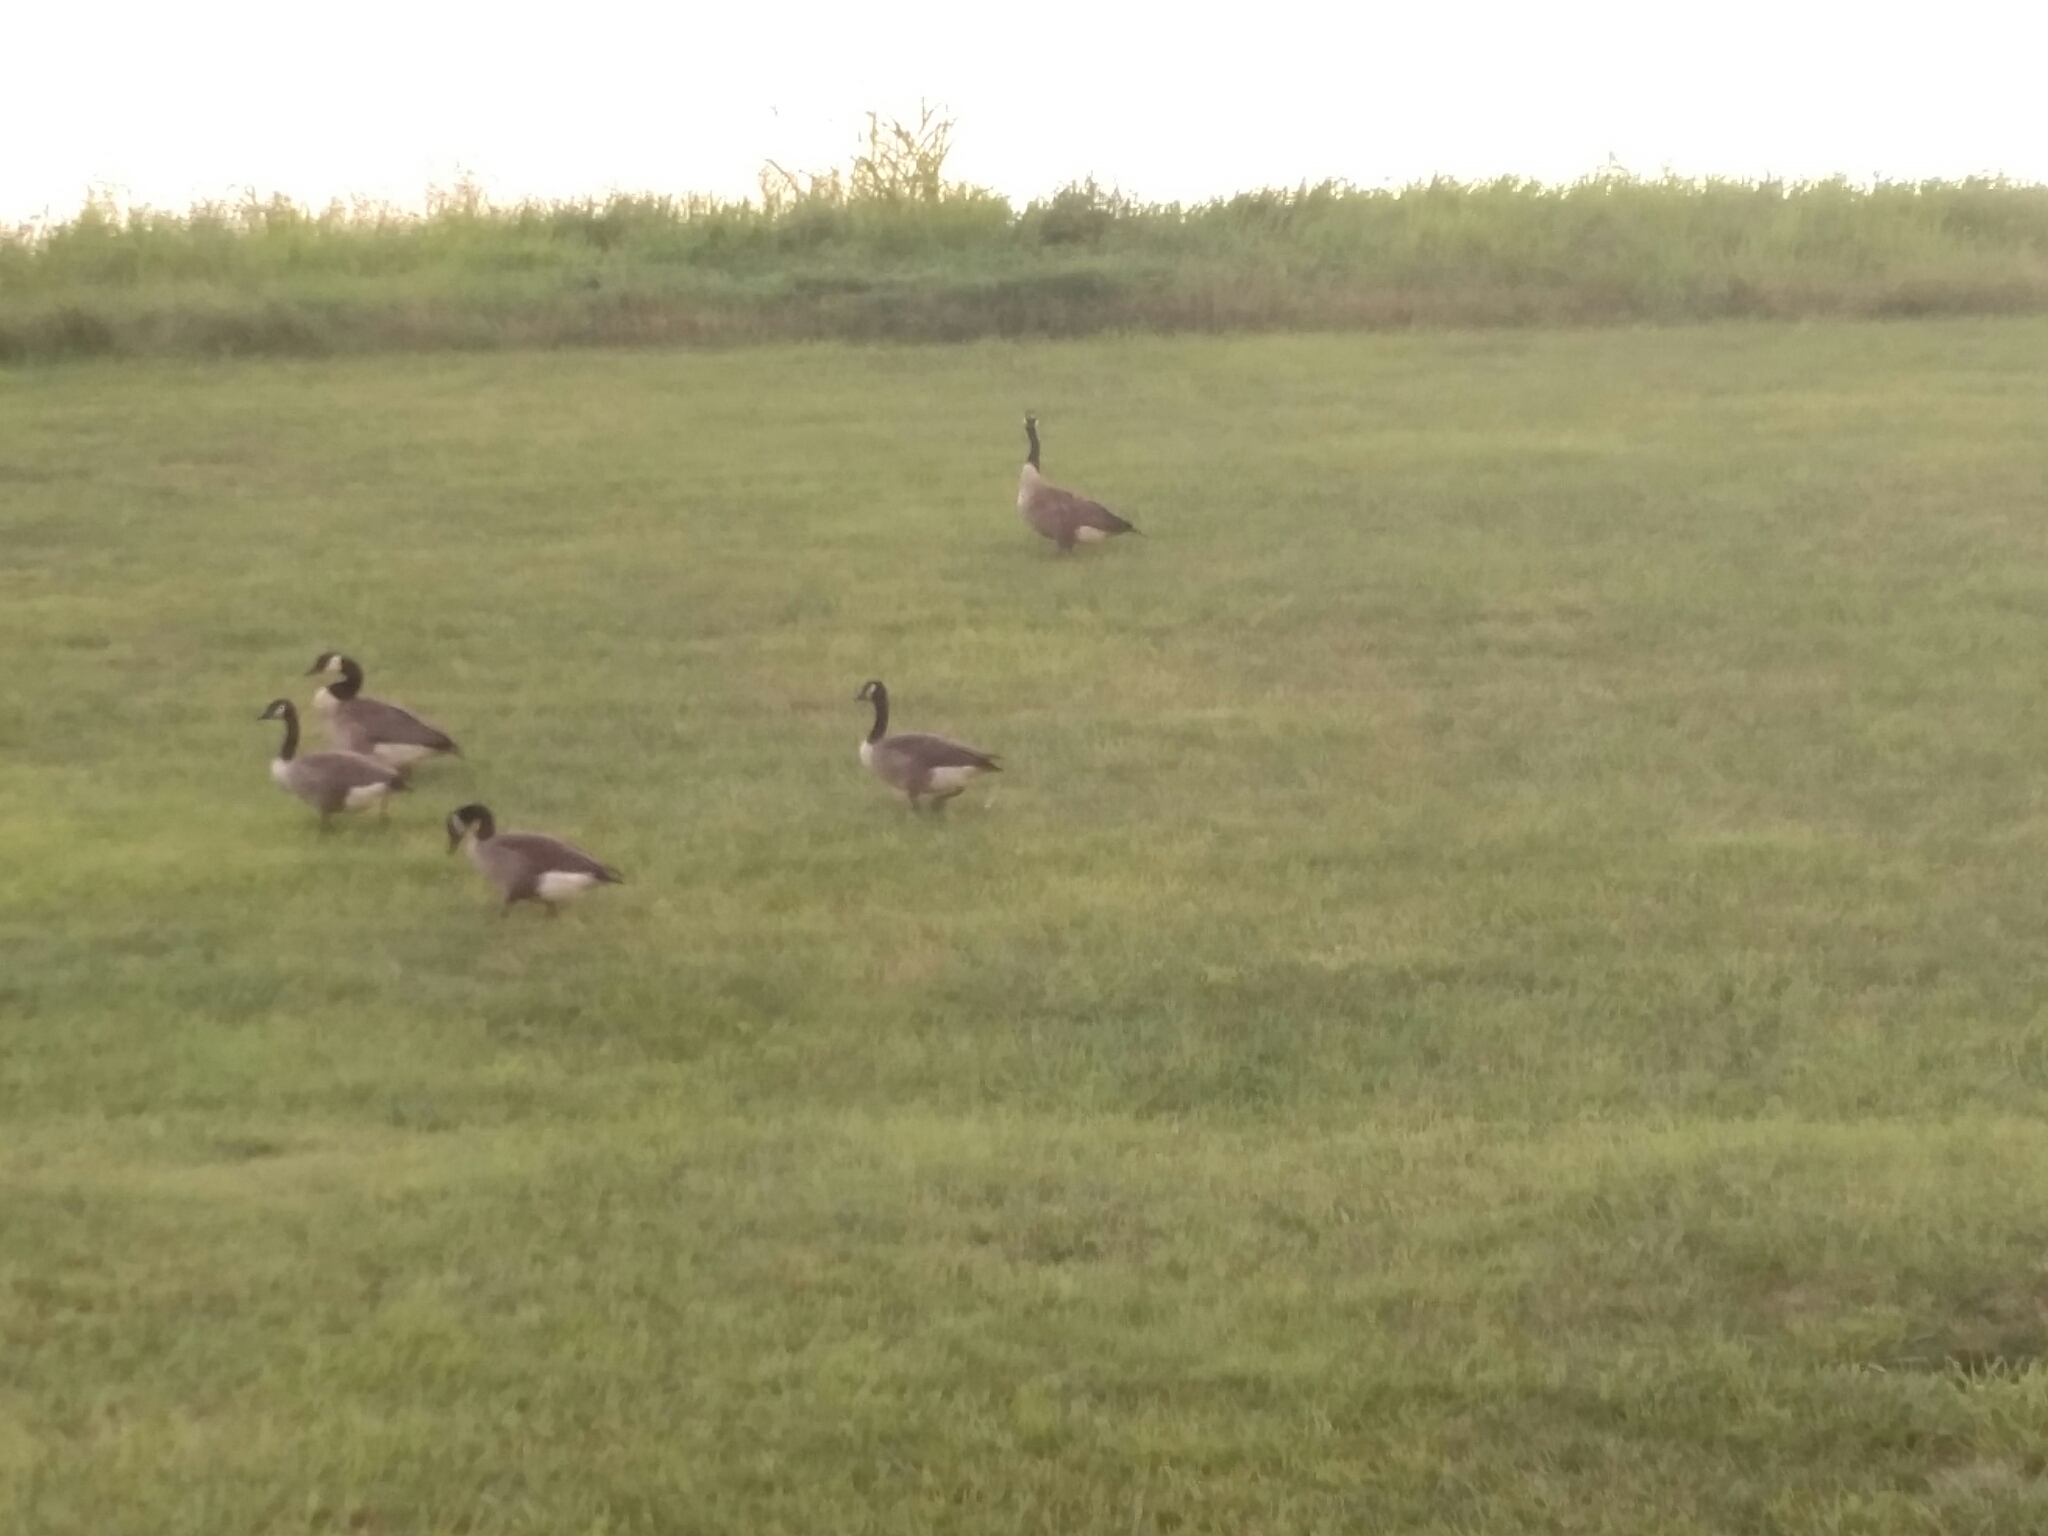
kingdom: Animalia
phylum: Chordata
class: Aves
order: Anseriformes
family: Anatidae
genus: Branta
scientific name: Branta canadensis
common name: Canada goose
